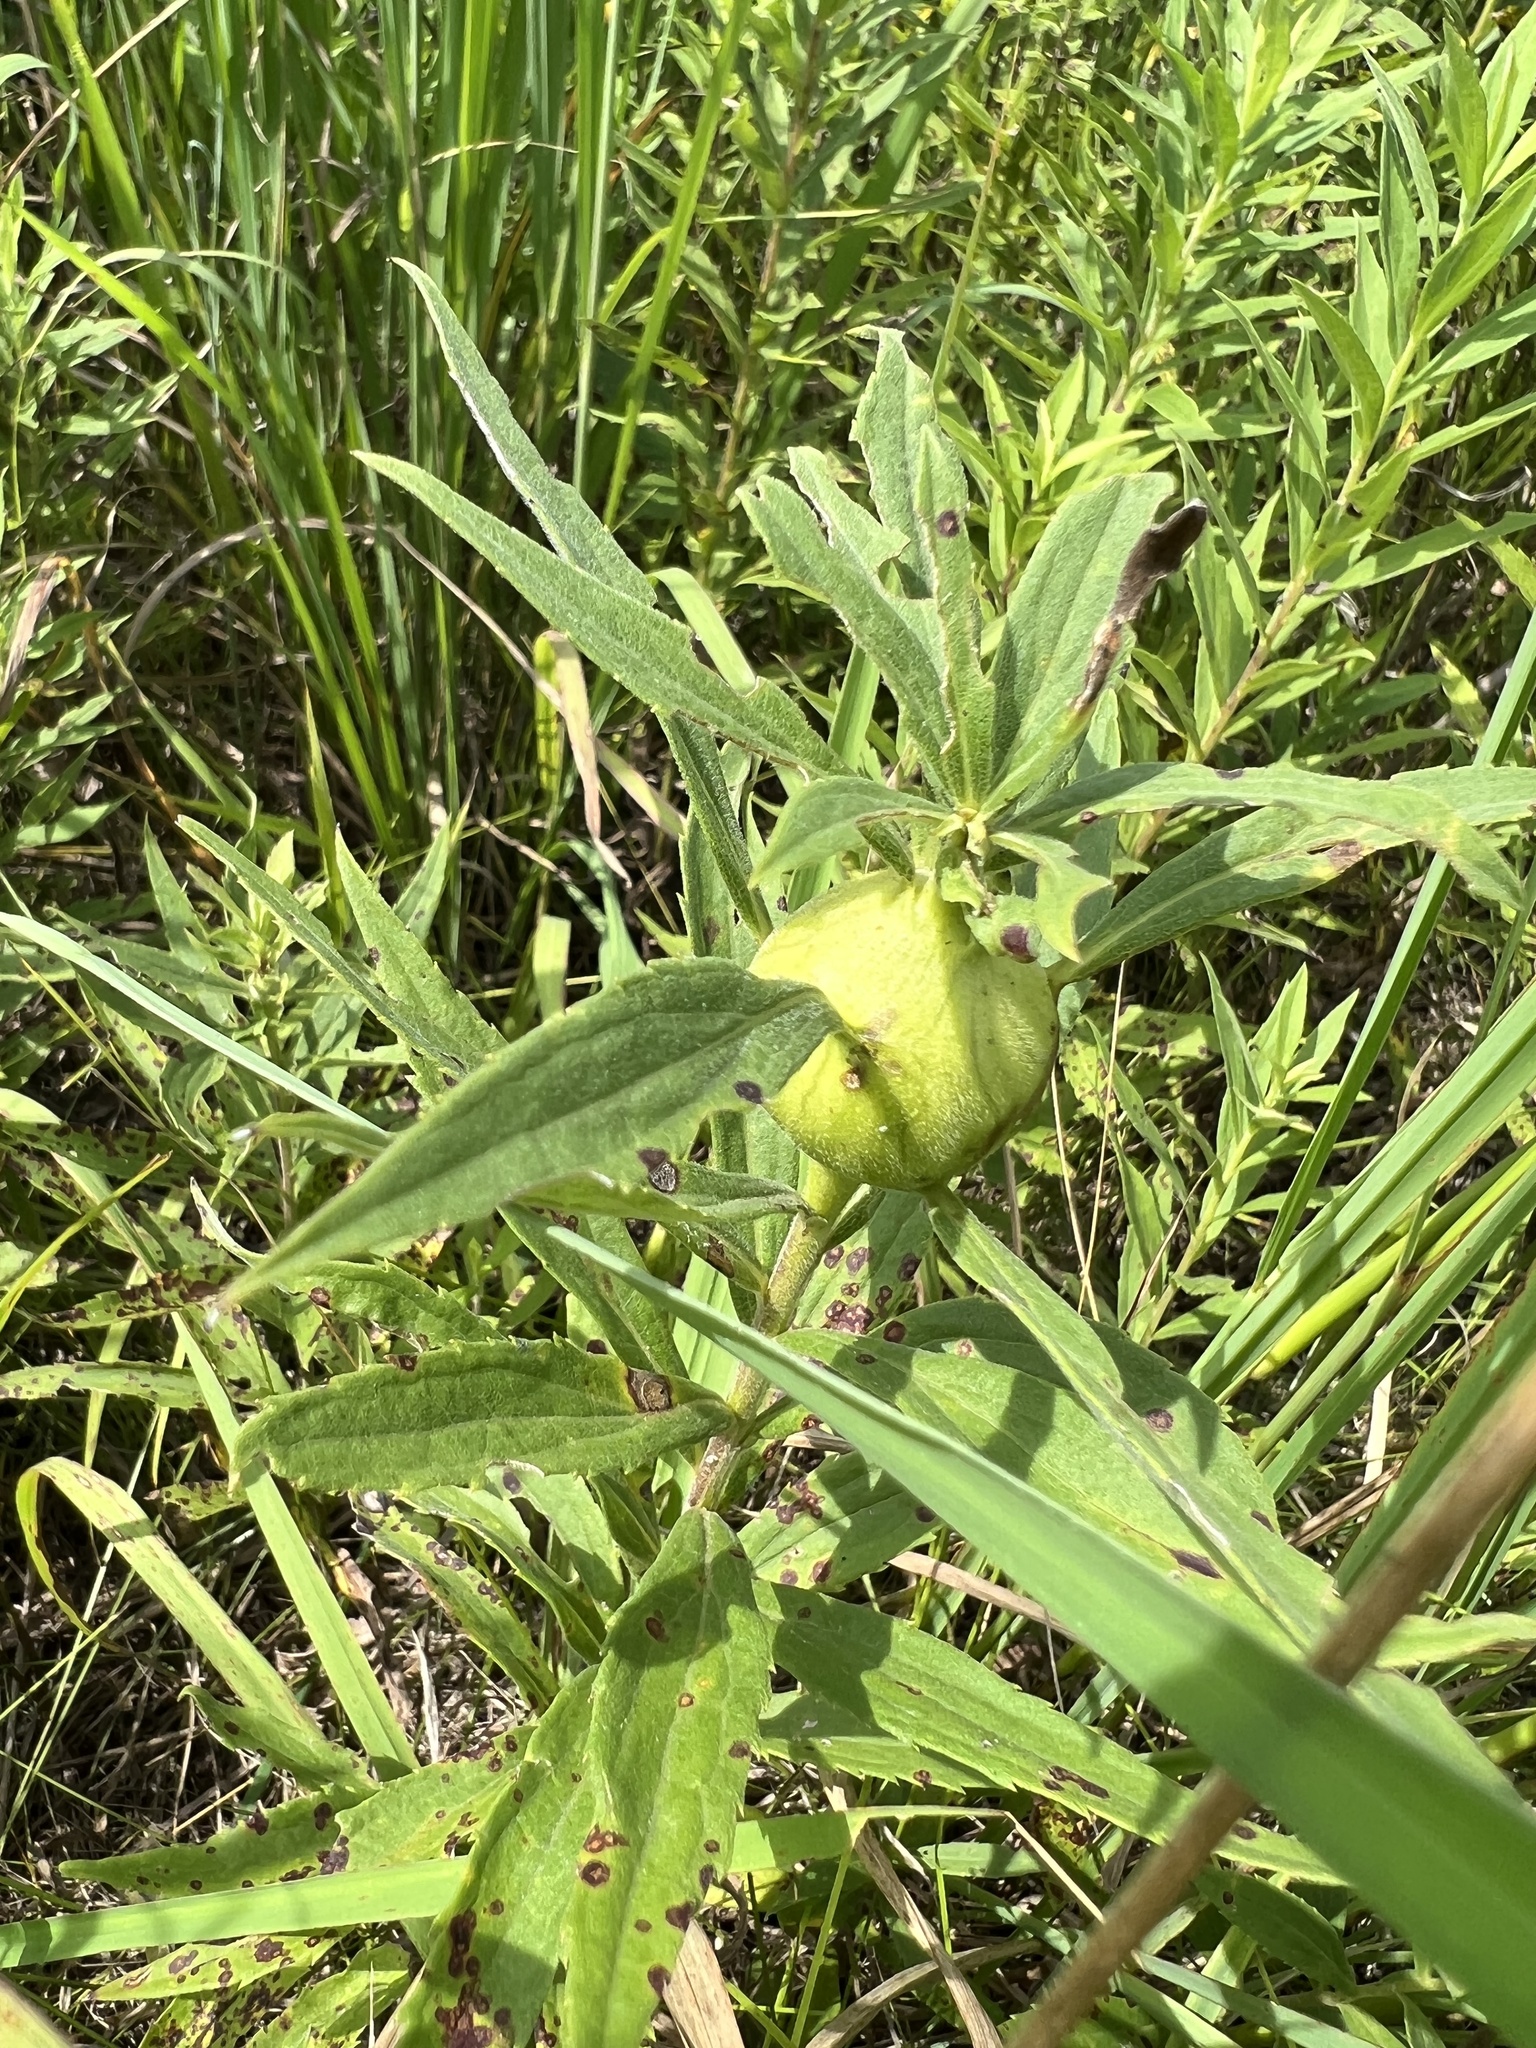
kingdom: Animalia
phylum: Arthropoda
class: Insecta
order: Diptera
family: Tephritidae
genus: Eurosta
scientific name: Eurosta solidaginis
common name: Goldenrod gall fly
